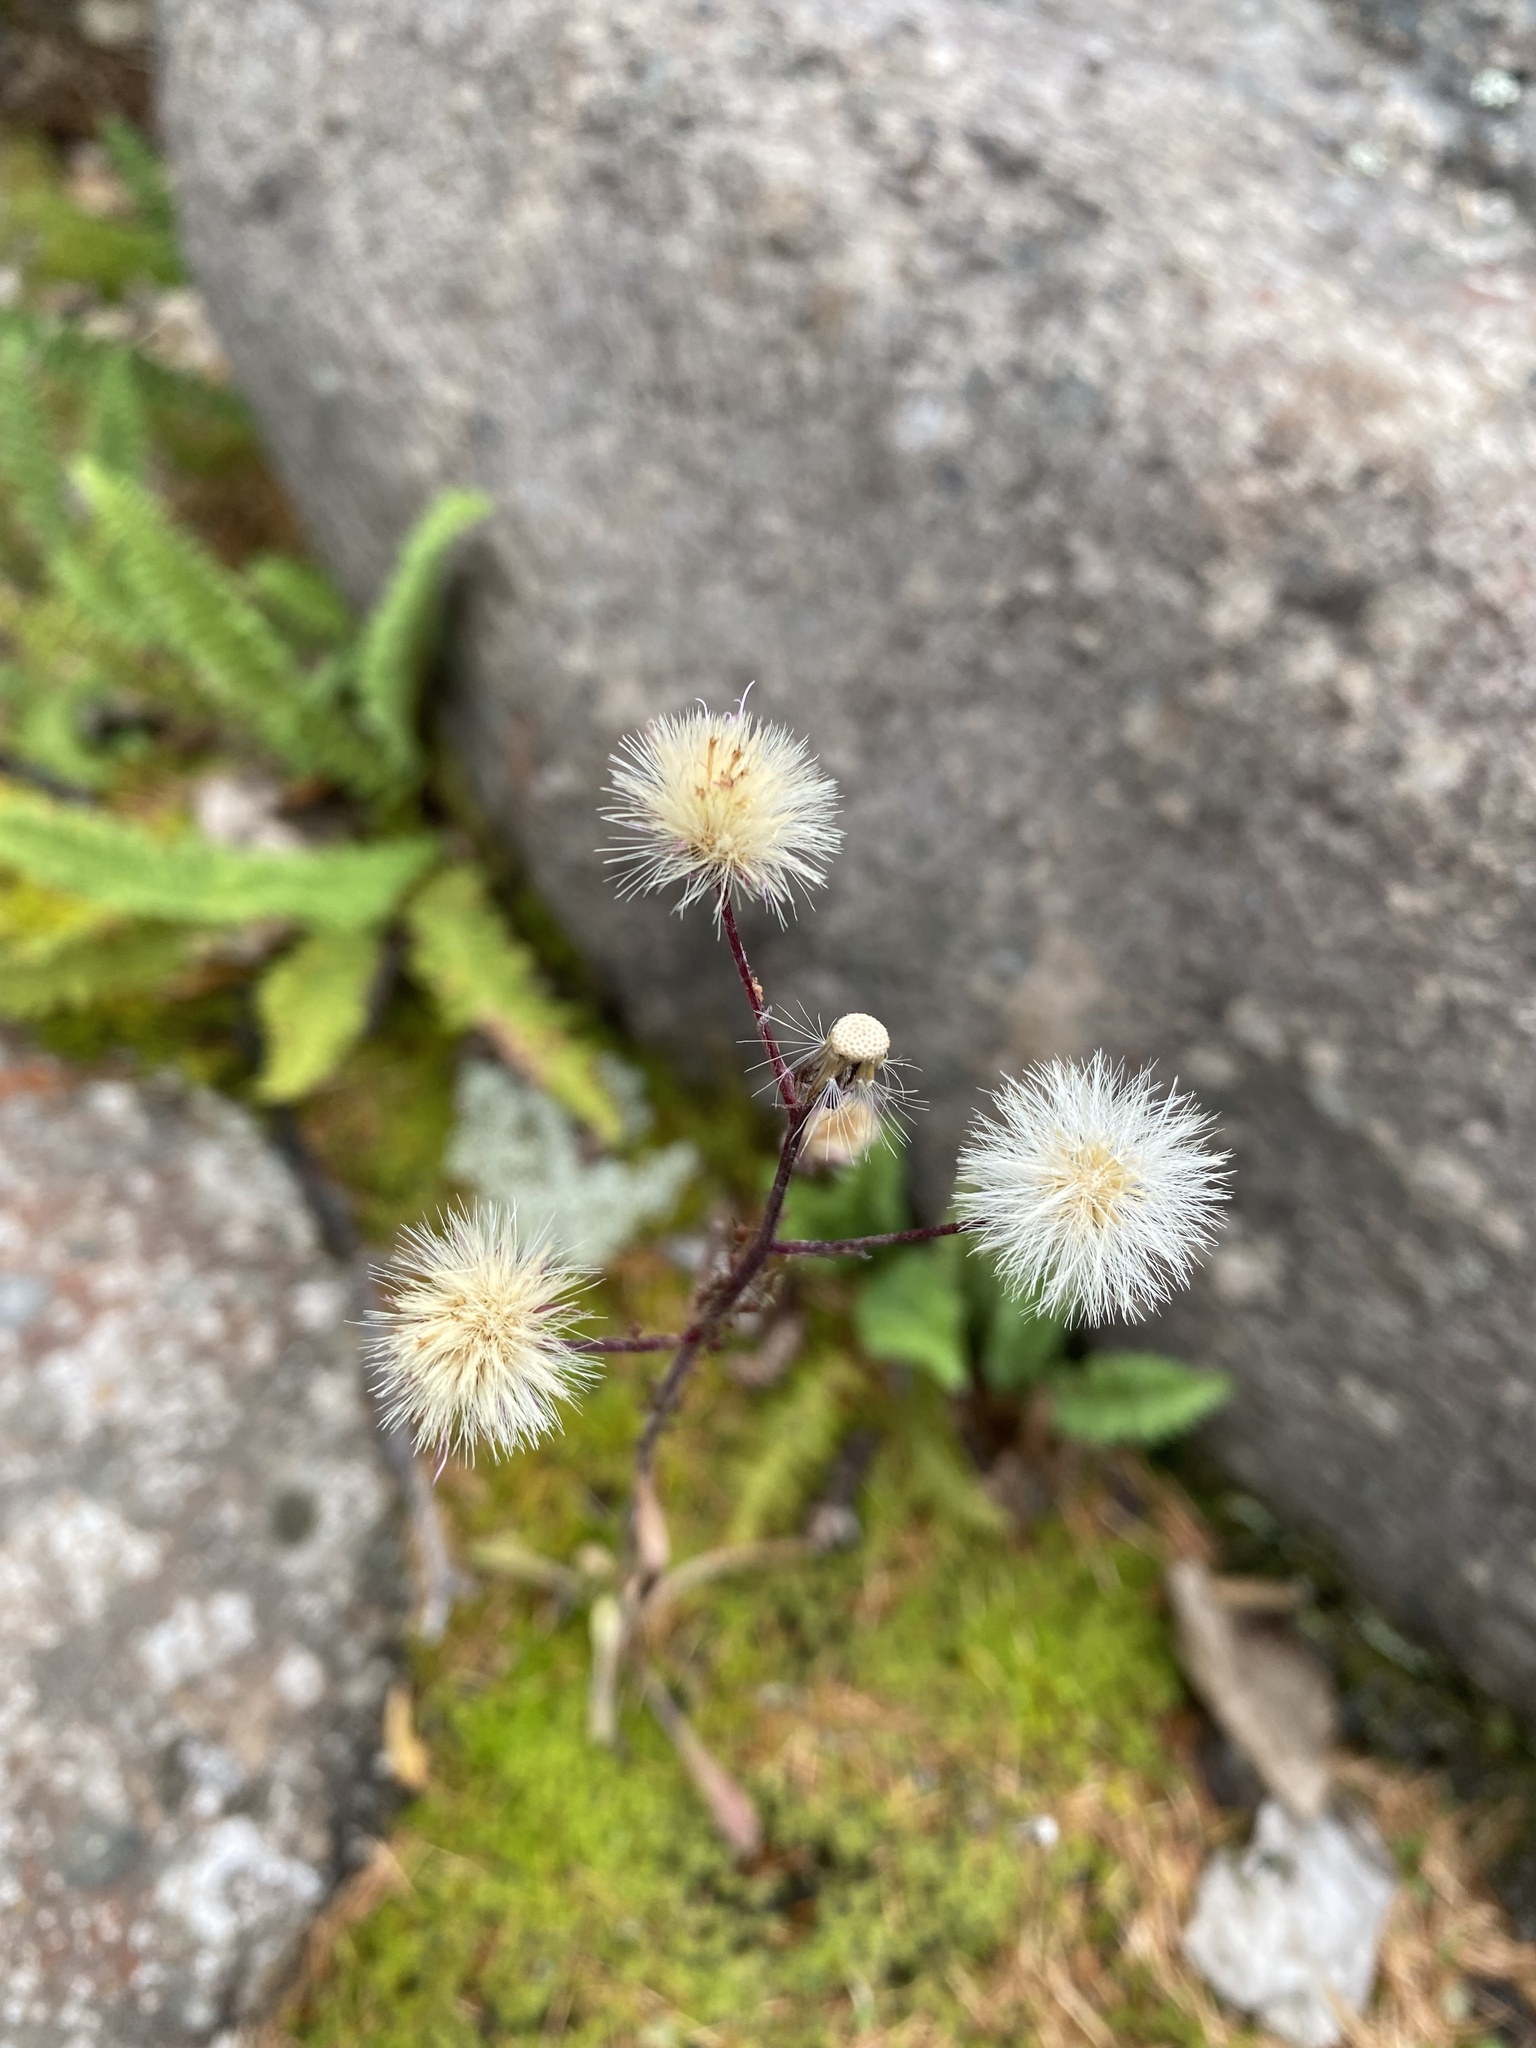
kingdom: Plantae
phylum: Tracheophyta
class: Magnoliopsida
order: Asterales
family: Asteraceae
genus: Erigeron
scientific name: Erigeron acris
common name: Blue fleabane
